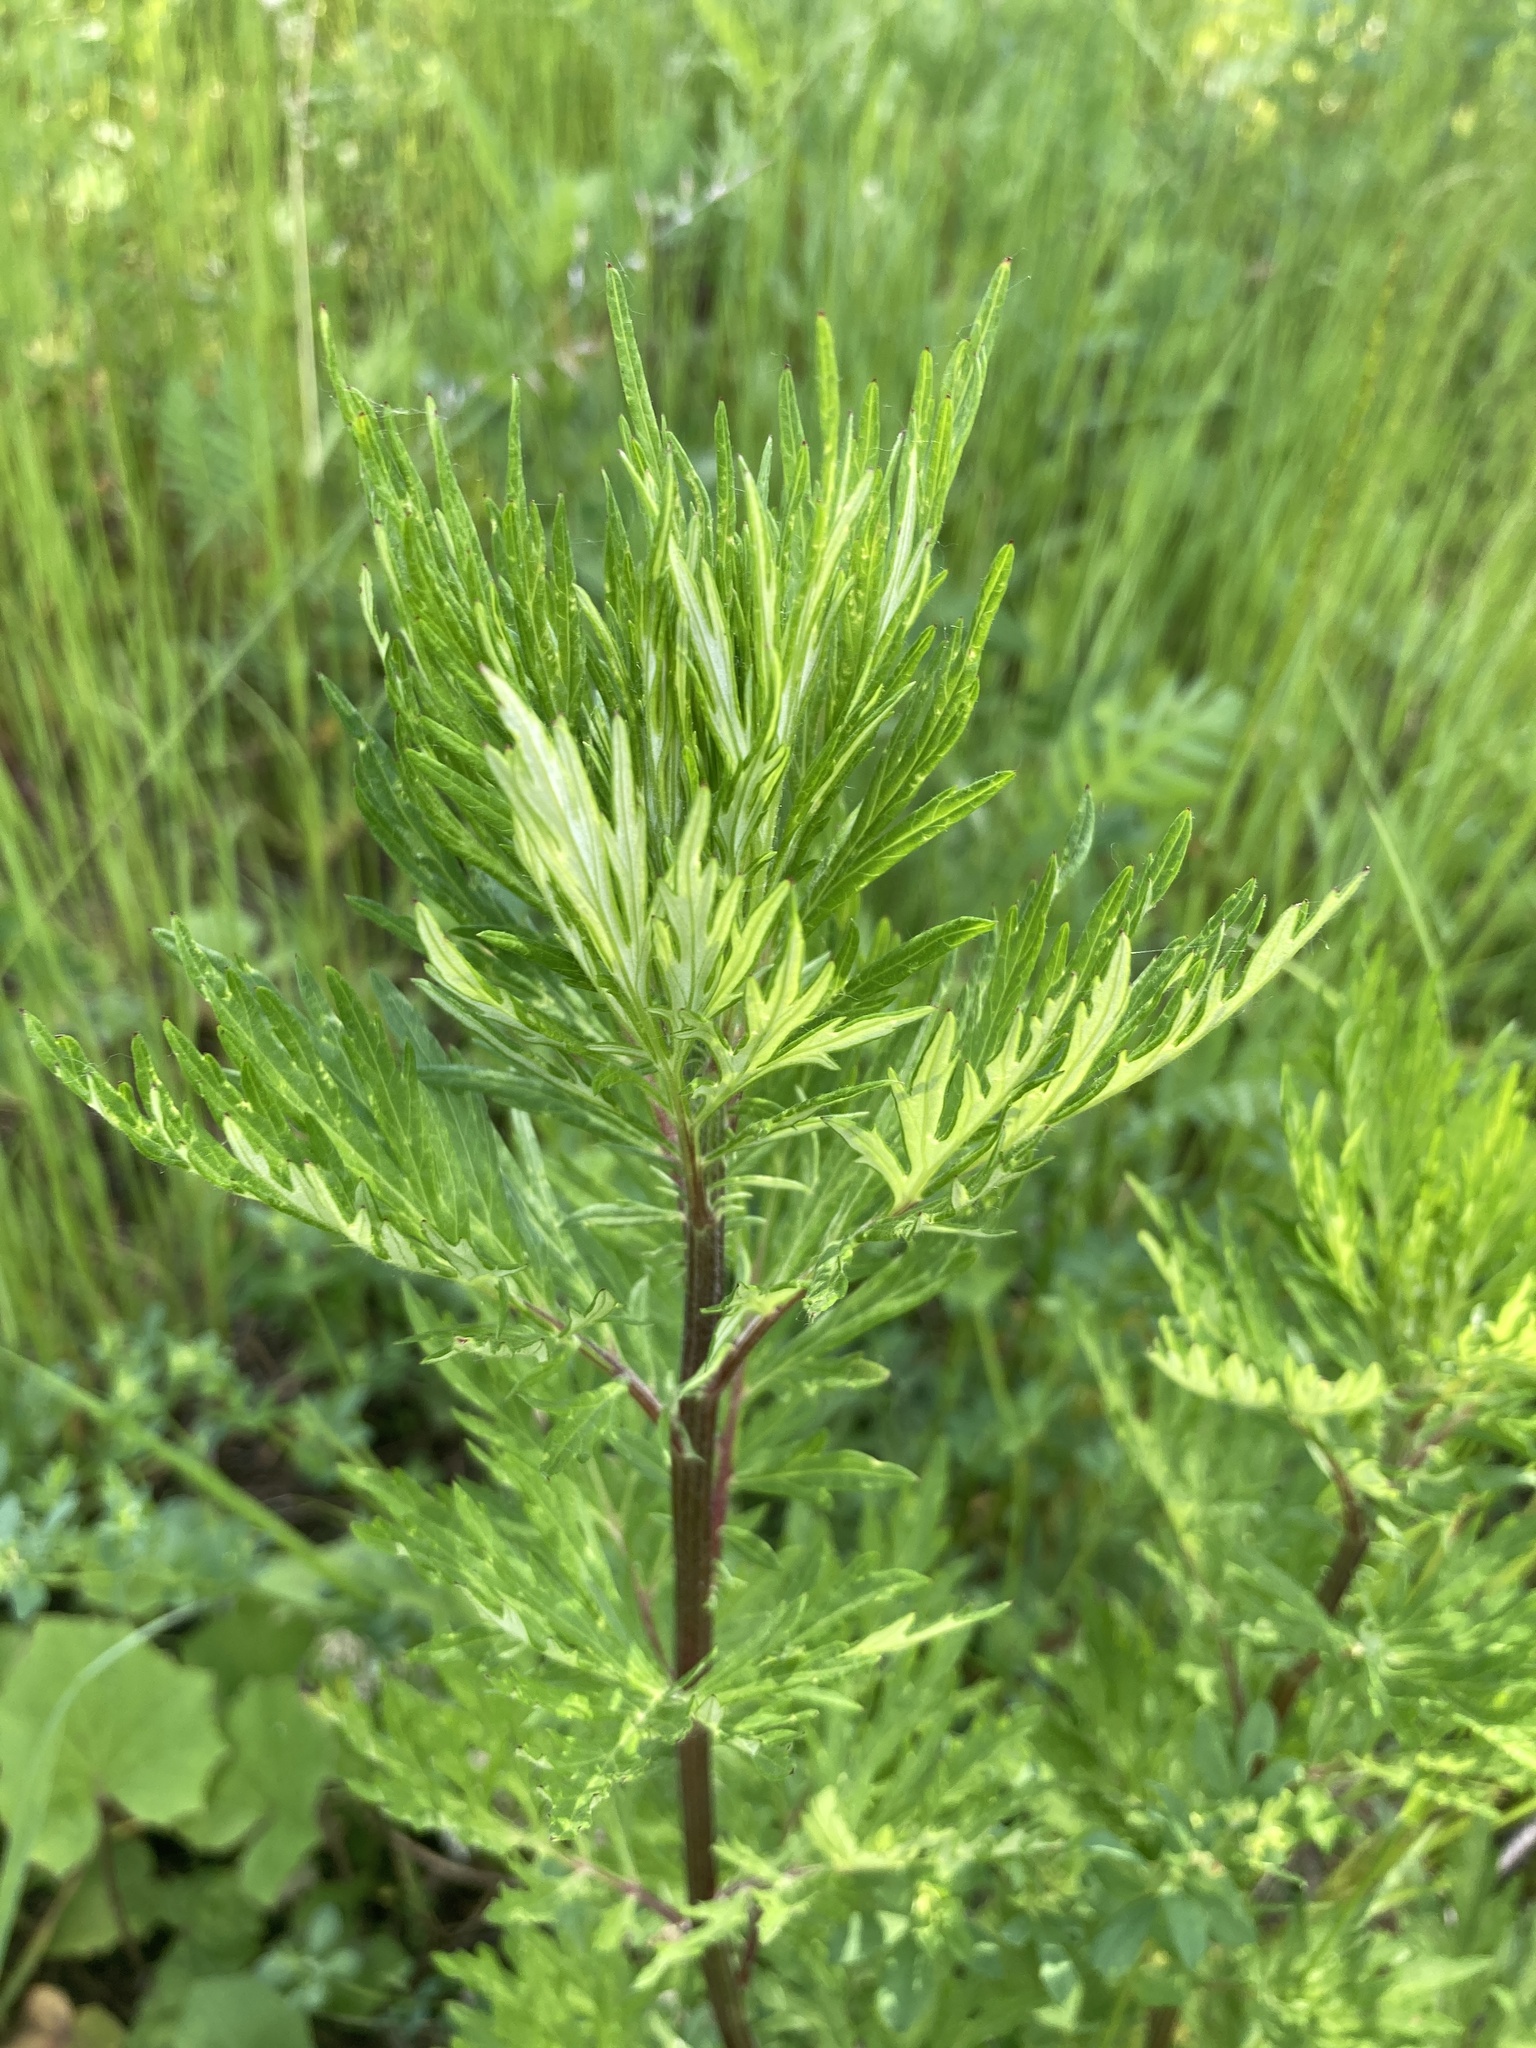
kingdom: Plantae
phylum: Tracheophyta
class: Magnoliopsida
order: Asterales
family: Asteraceae
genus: Artemisia
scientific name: Artemisia vulgaris
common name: Mugwort
